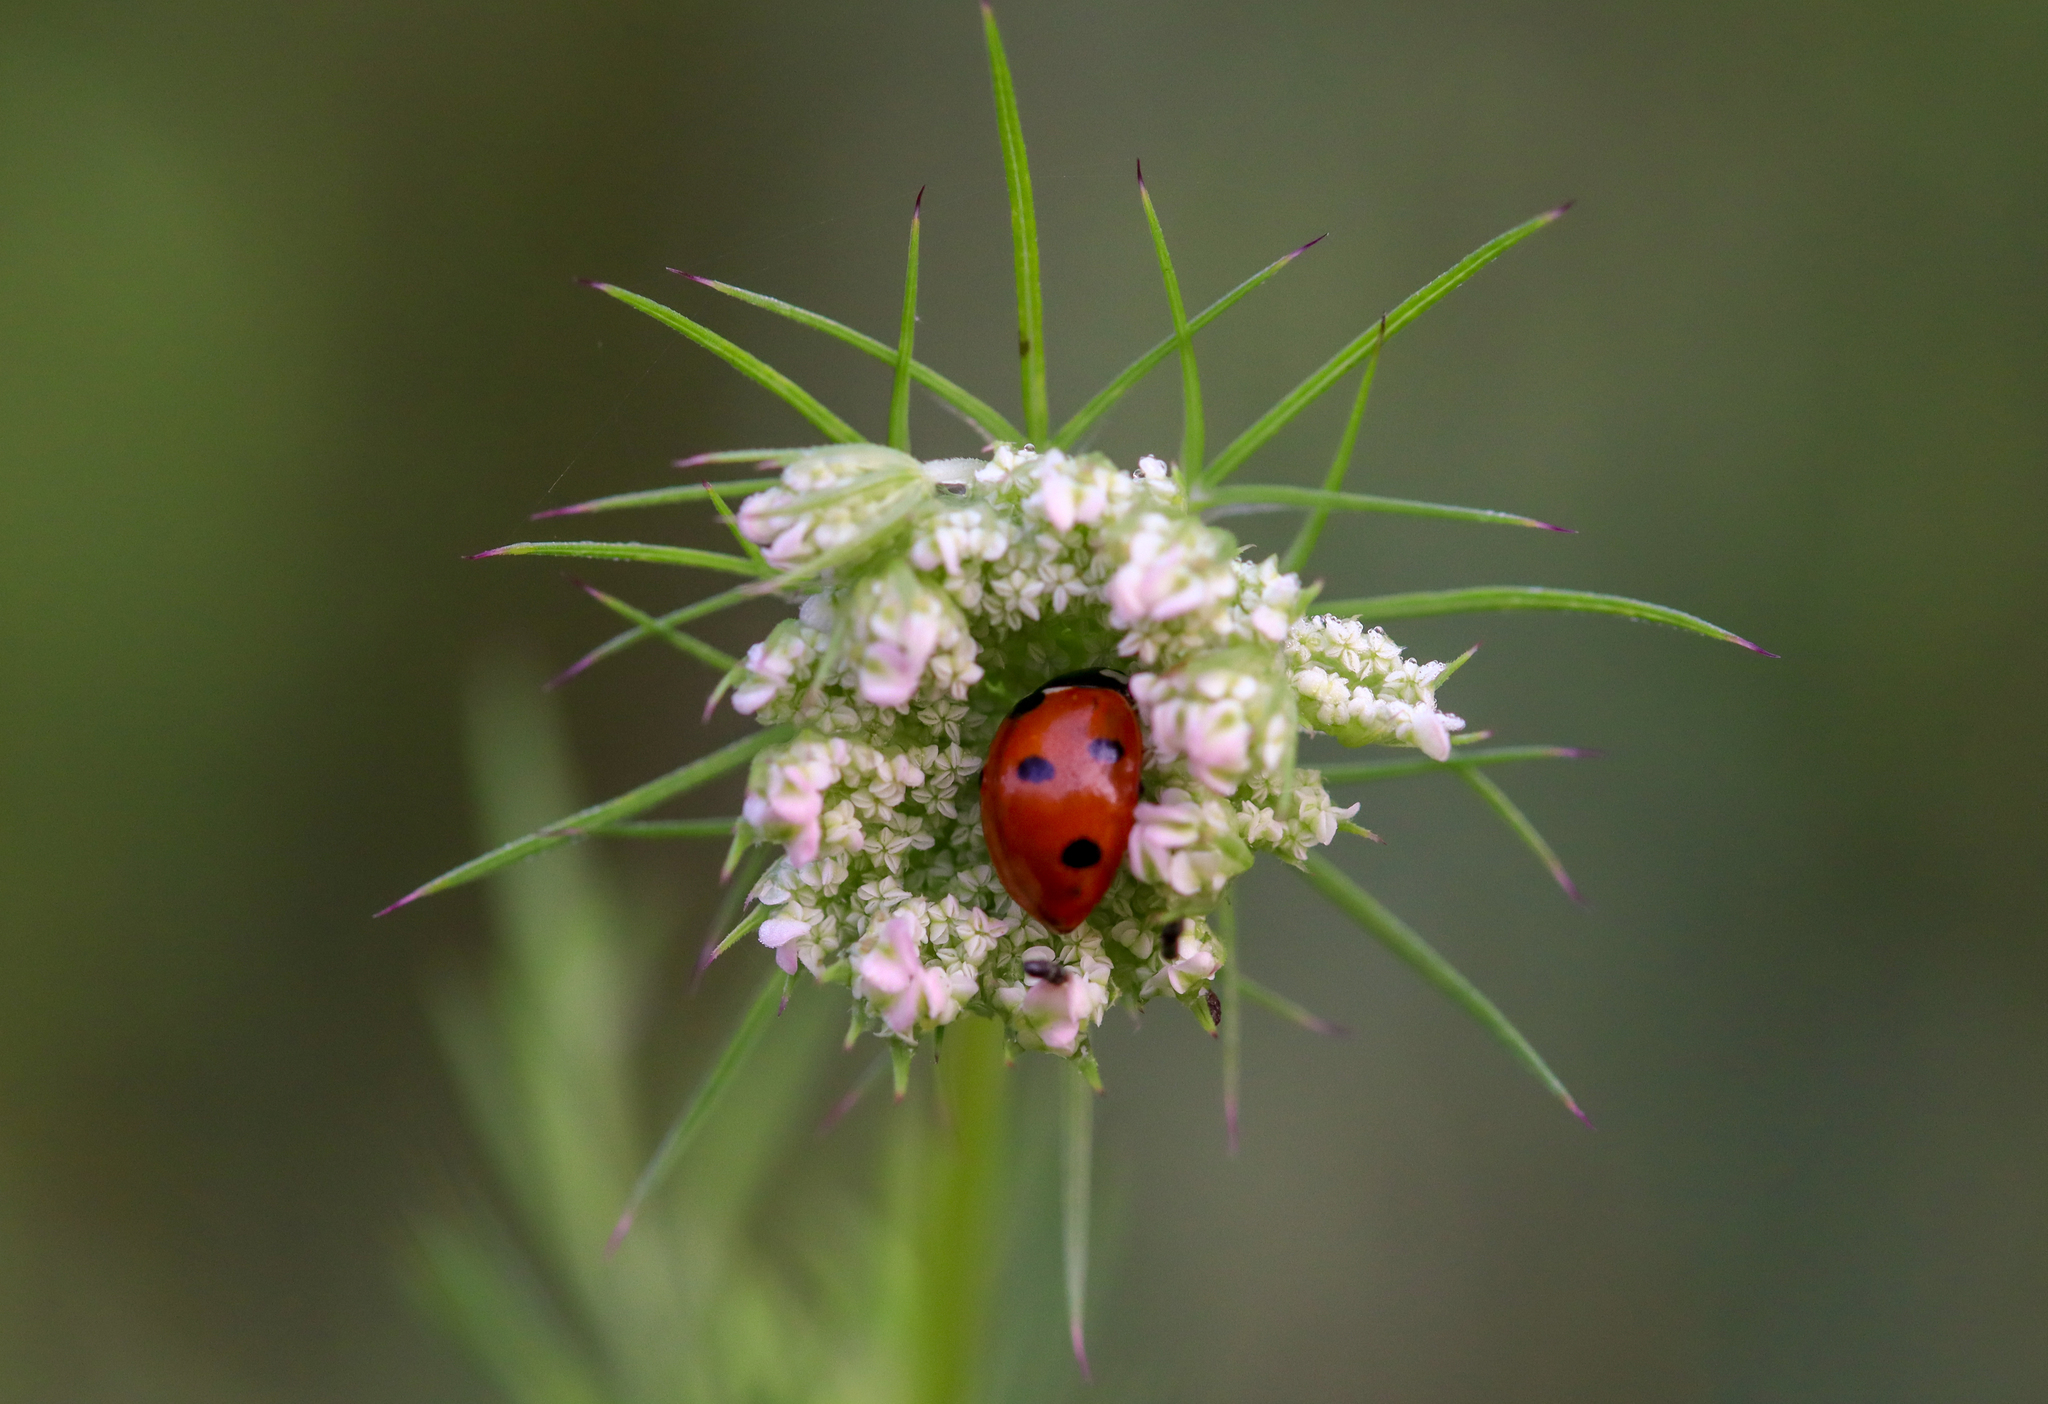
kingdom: Animalia
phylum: Arthropoda
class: Insecta
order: Coleoptera
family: Coccinellidae
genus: Coccinella
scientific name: Coccinella septempunctata
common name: Sevenspotted lady beetle
